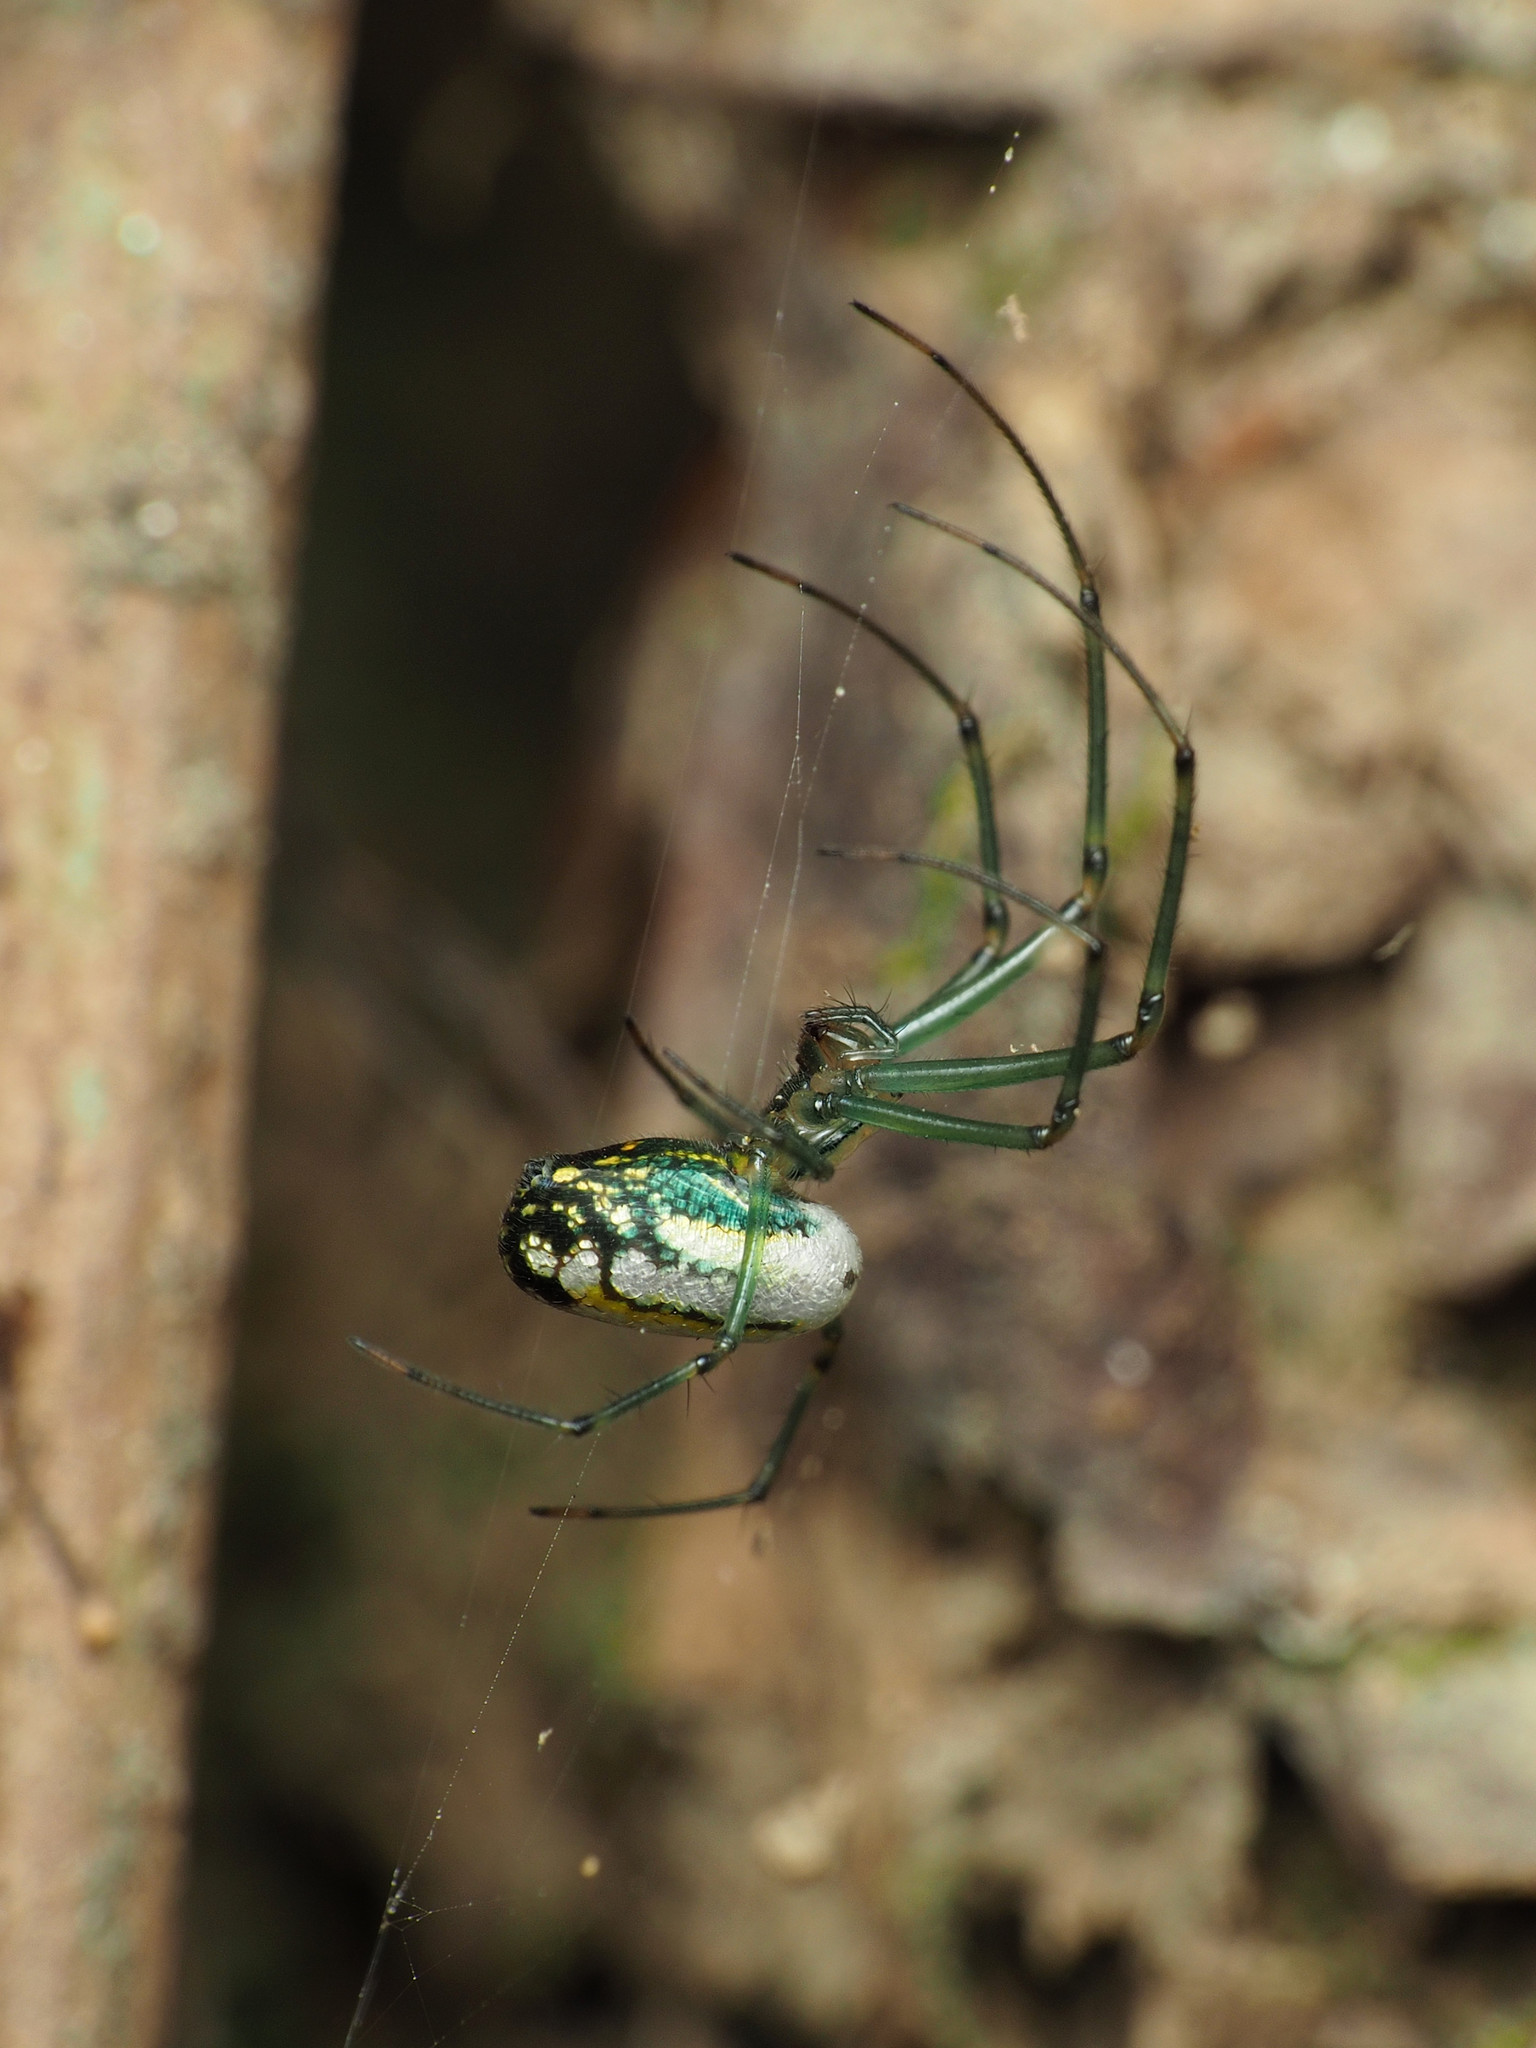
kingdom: Animalia
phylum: Arthropoda
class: Arachnida
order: Araneae
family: Tetragnathidae
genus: Leucauge
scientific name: Leucauge venusta
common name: Longjawed orb weavers
